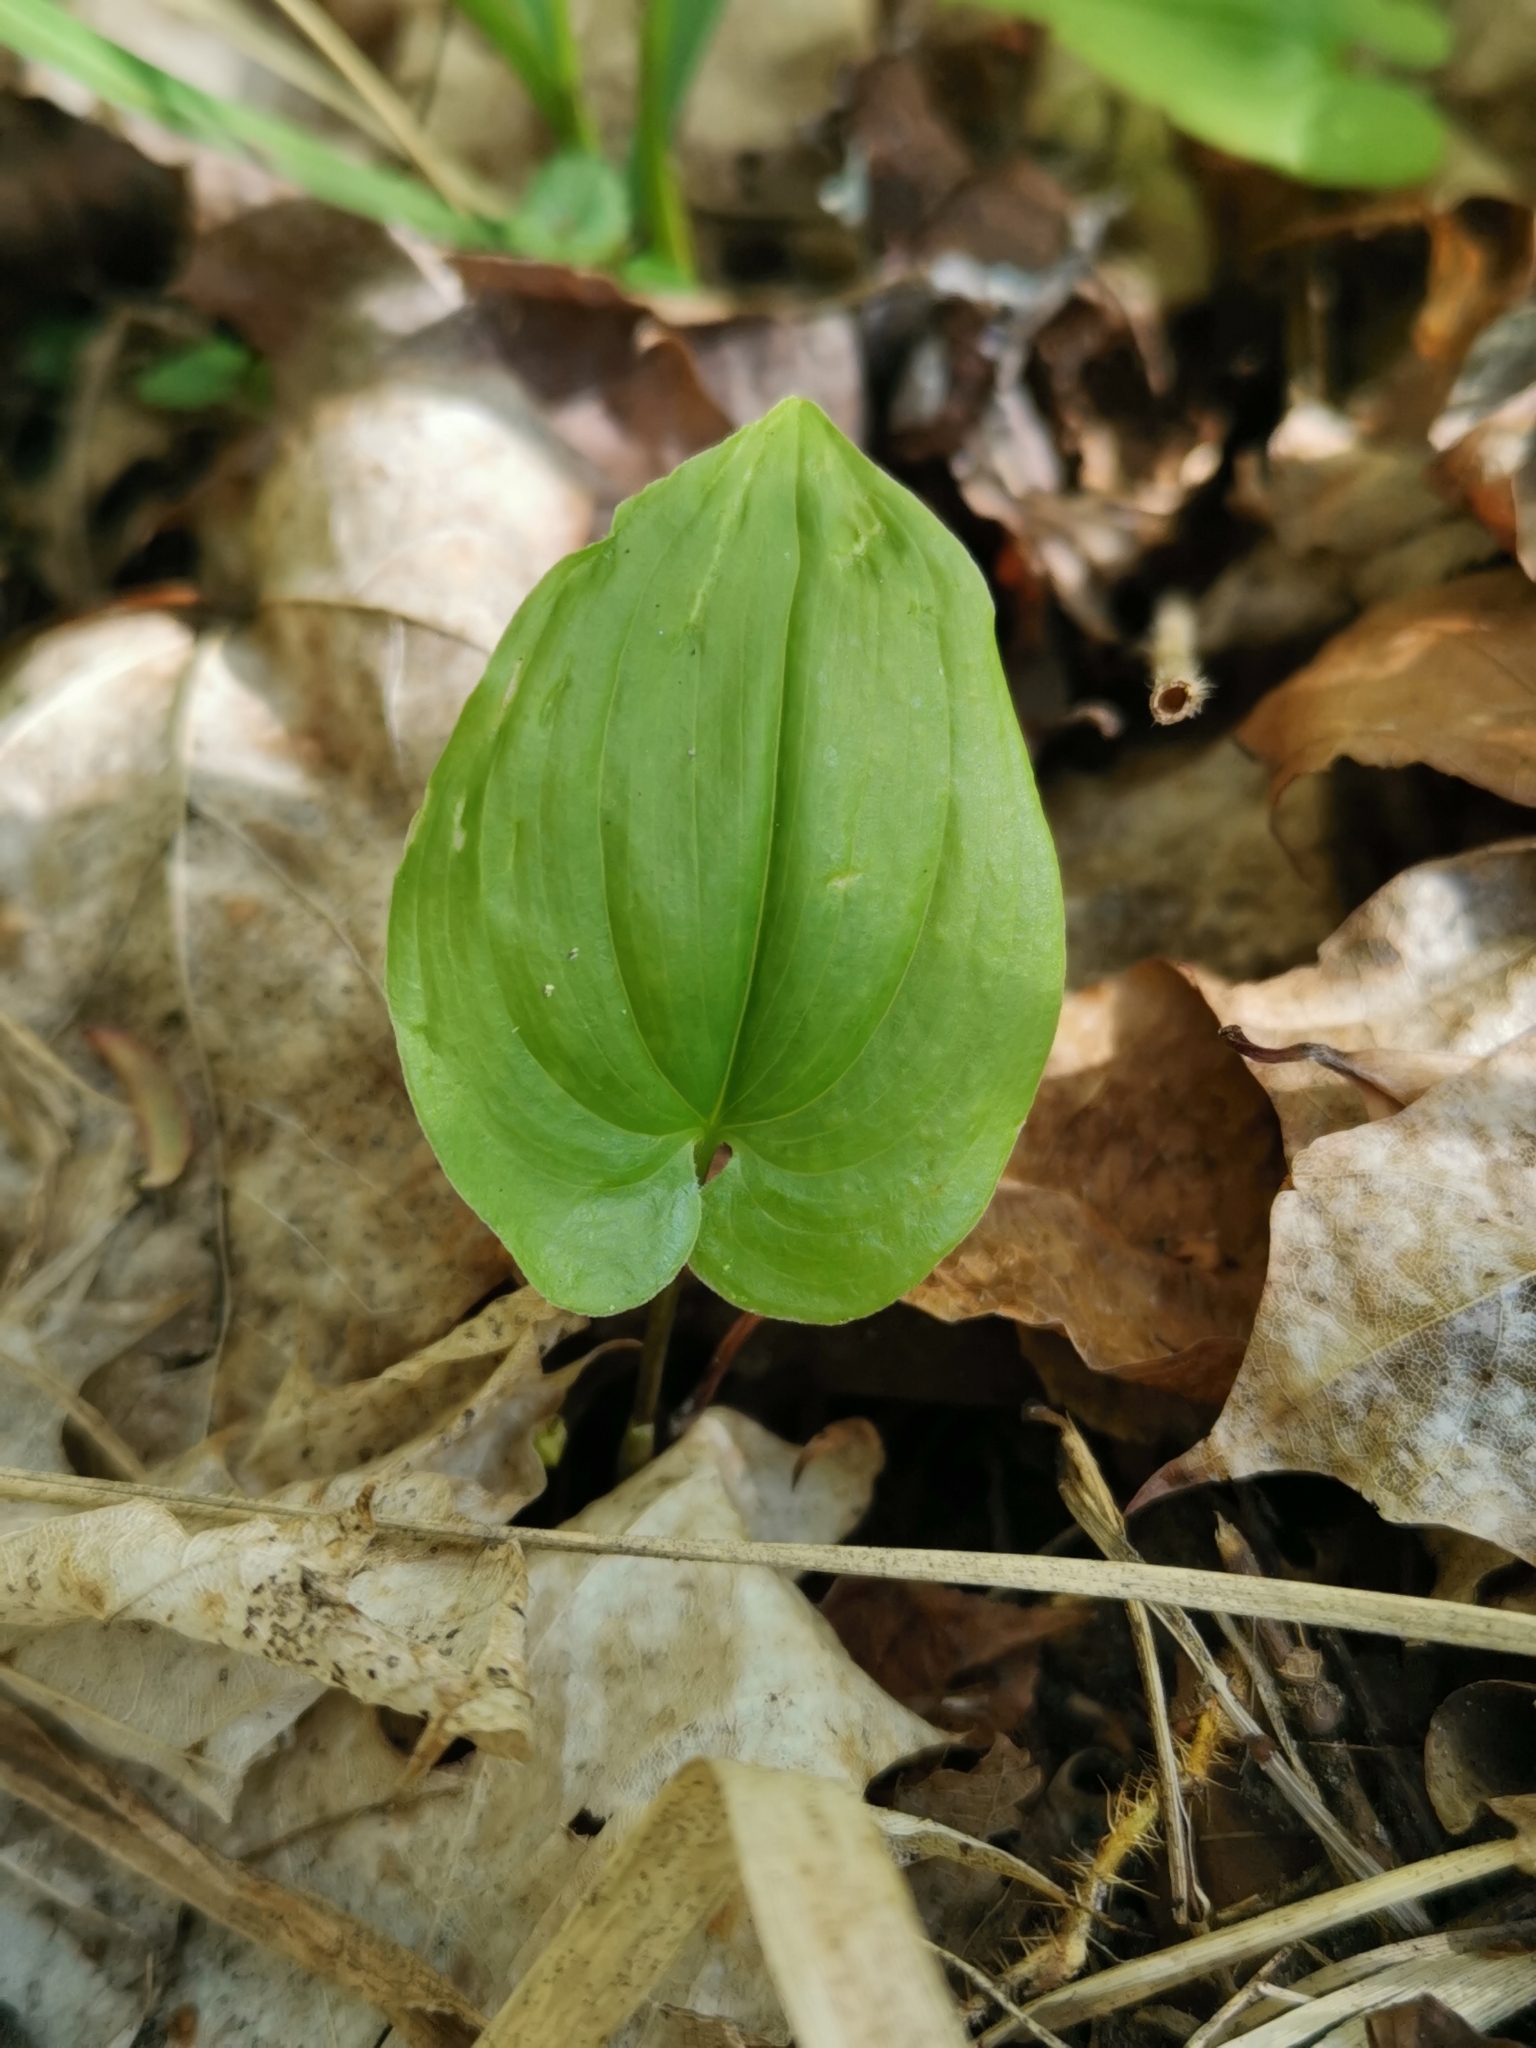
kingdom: Plantae
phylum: Tracheophyta
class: Liliopsida
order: Asparagales
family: Asparagaceae
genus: Maianthemum
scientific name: Maianthemum bifolium
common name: May lily
